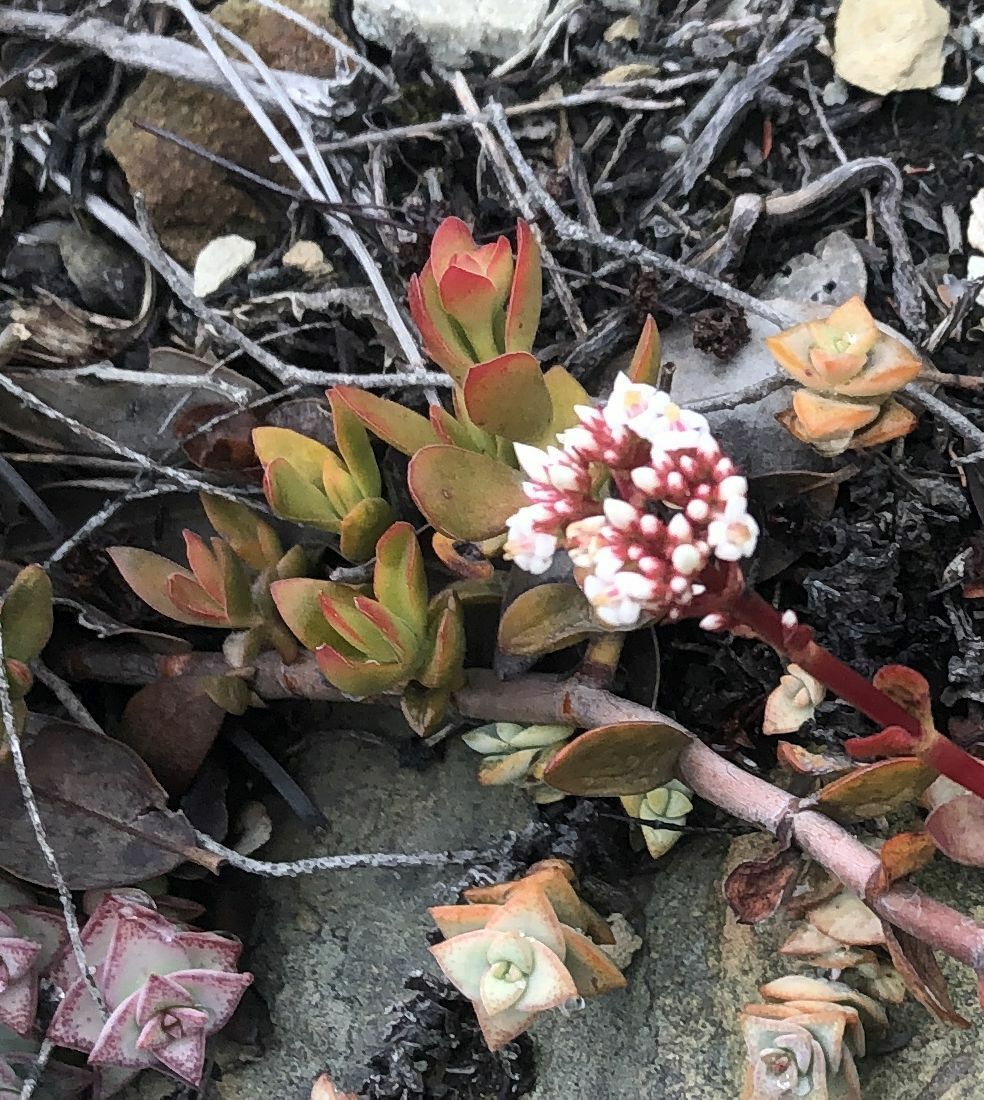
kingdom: Plantae
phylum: Tracheophyta
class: Magnoliopsida
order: Saxifragales
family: Crassulaceae
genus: Crassula
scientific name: Crassula rubricaulis
